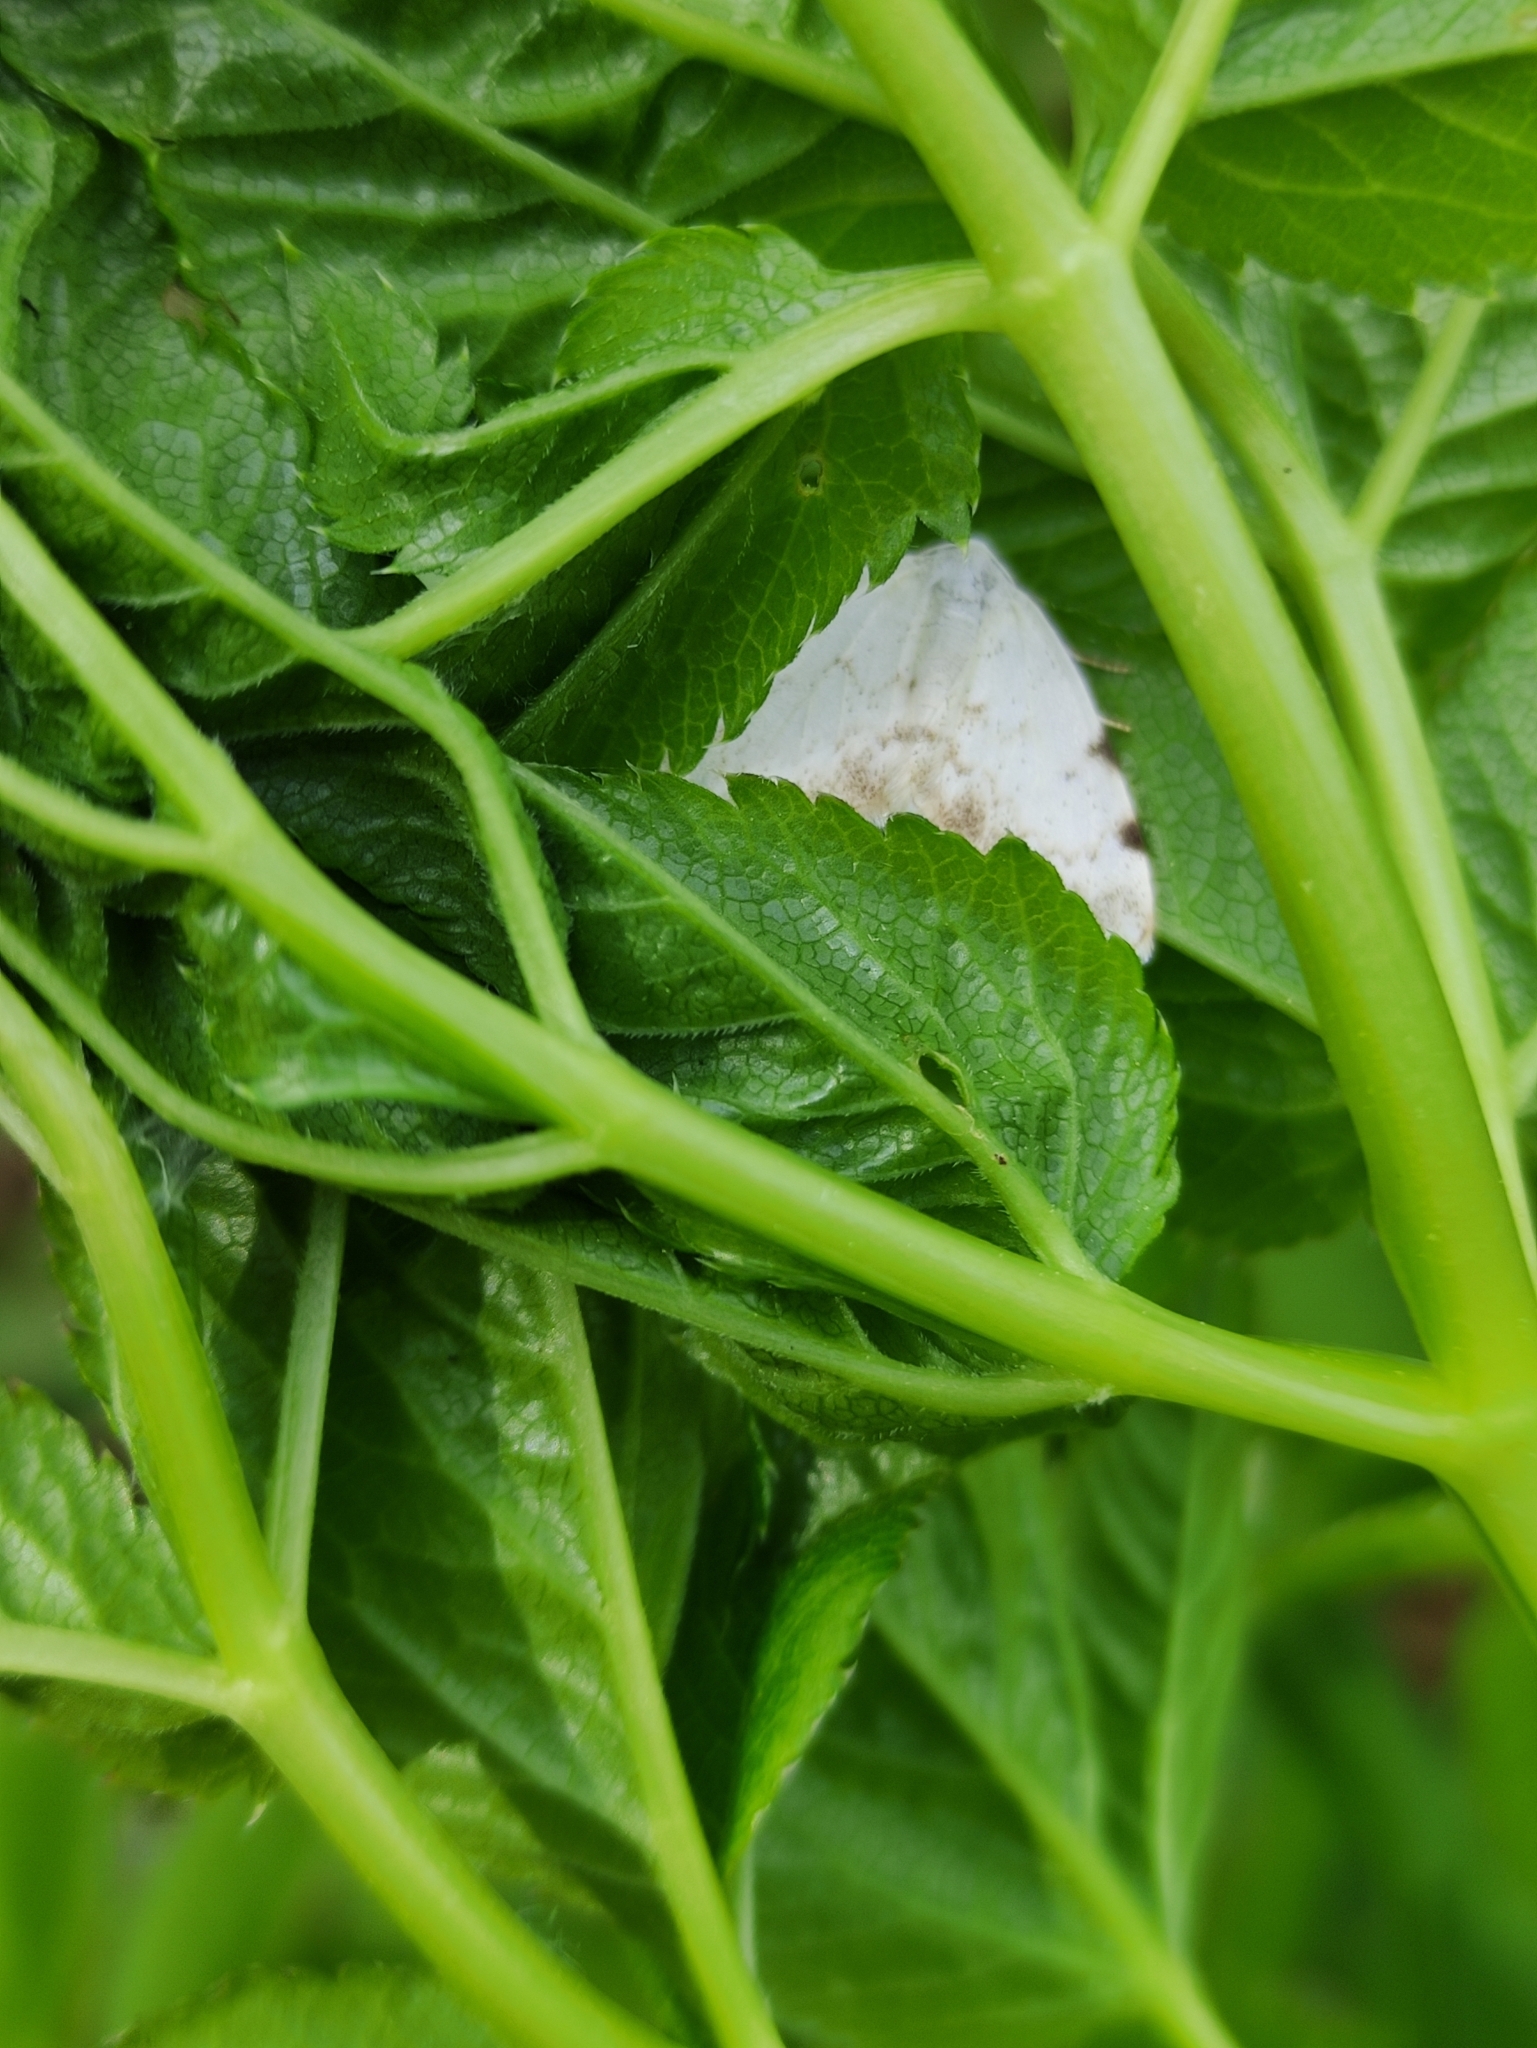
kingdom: Animalia
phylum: Arthropoda
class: Insecta
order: Lepidoptera
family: Geometridae
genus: Lomographa
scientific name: Lomographa bimaculata
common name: White-pinion spotted
